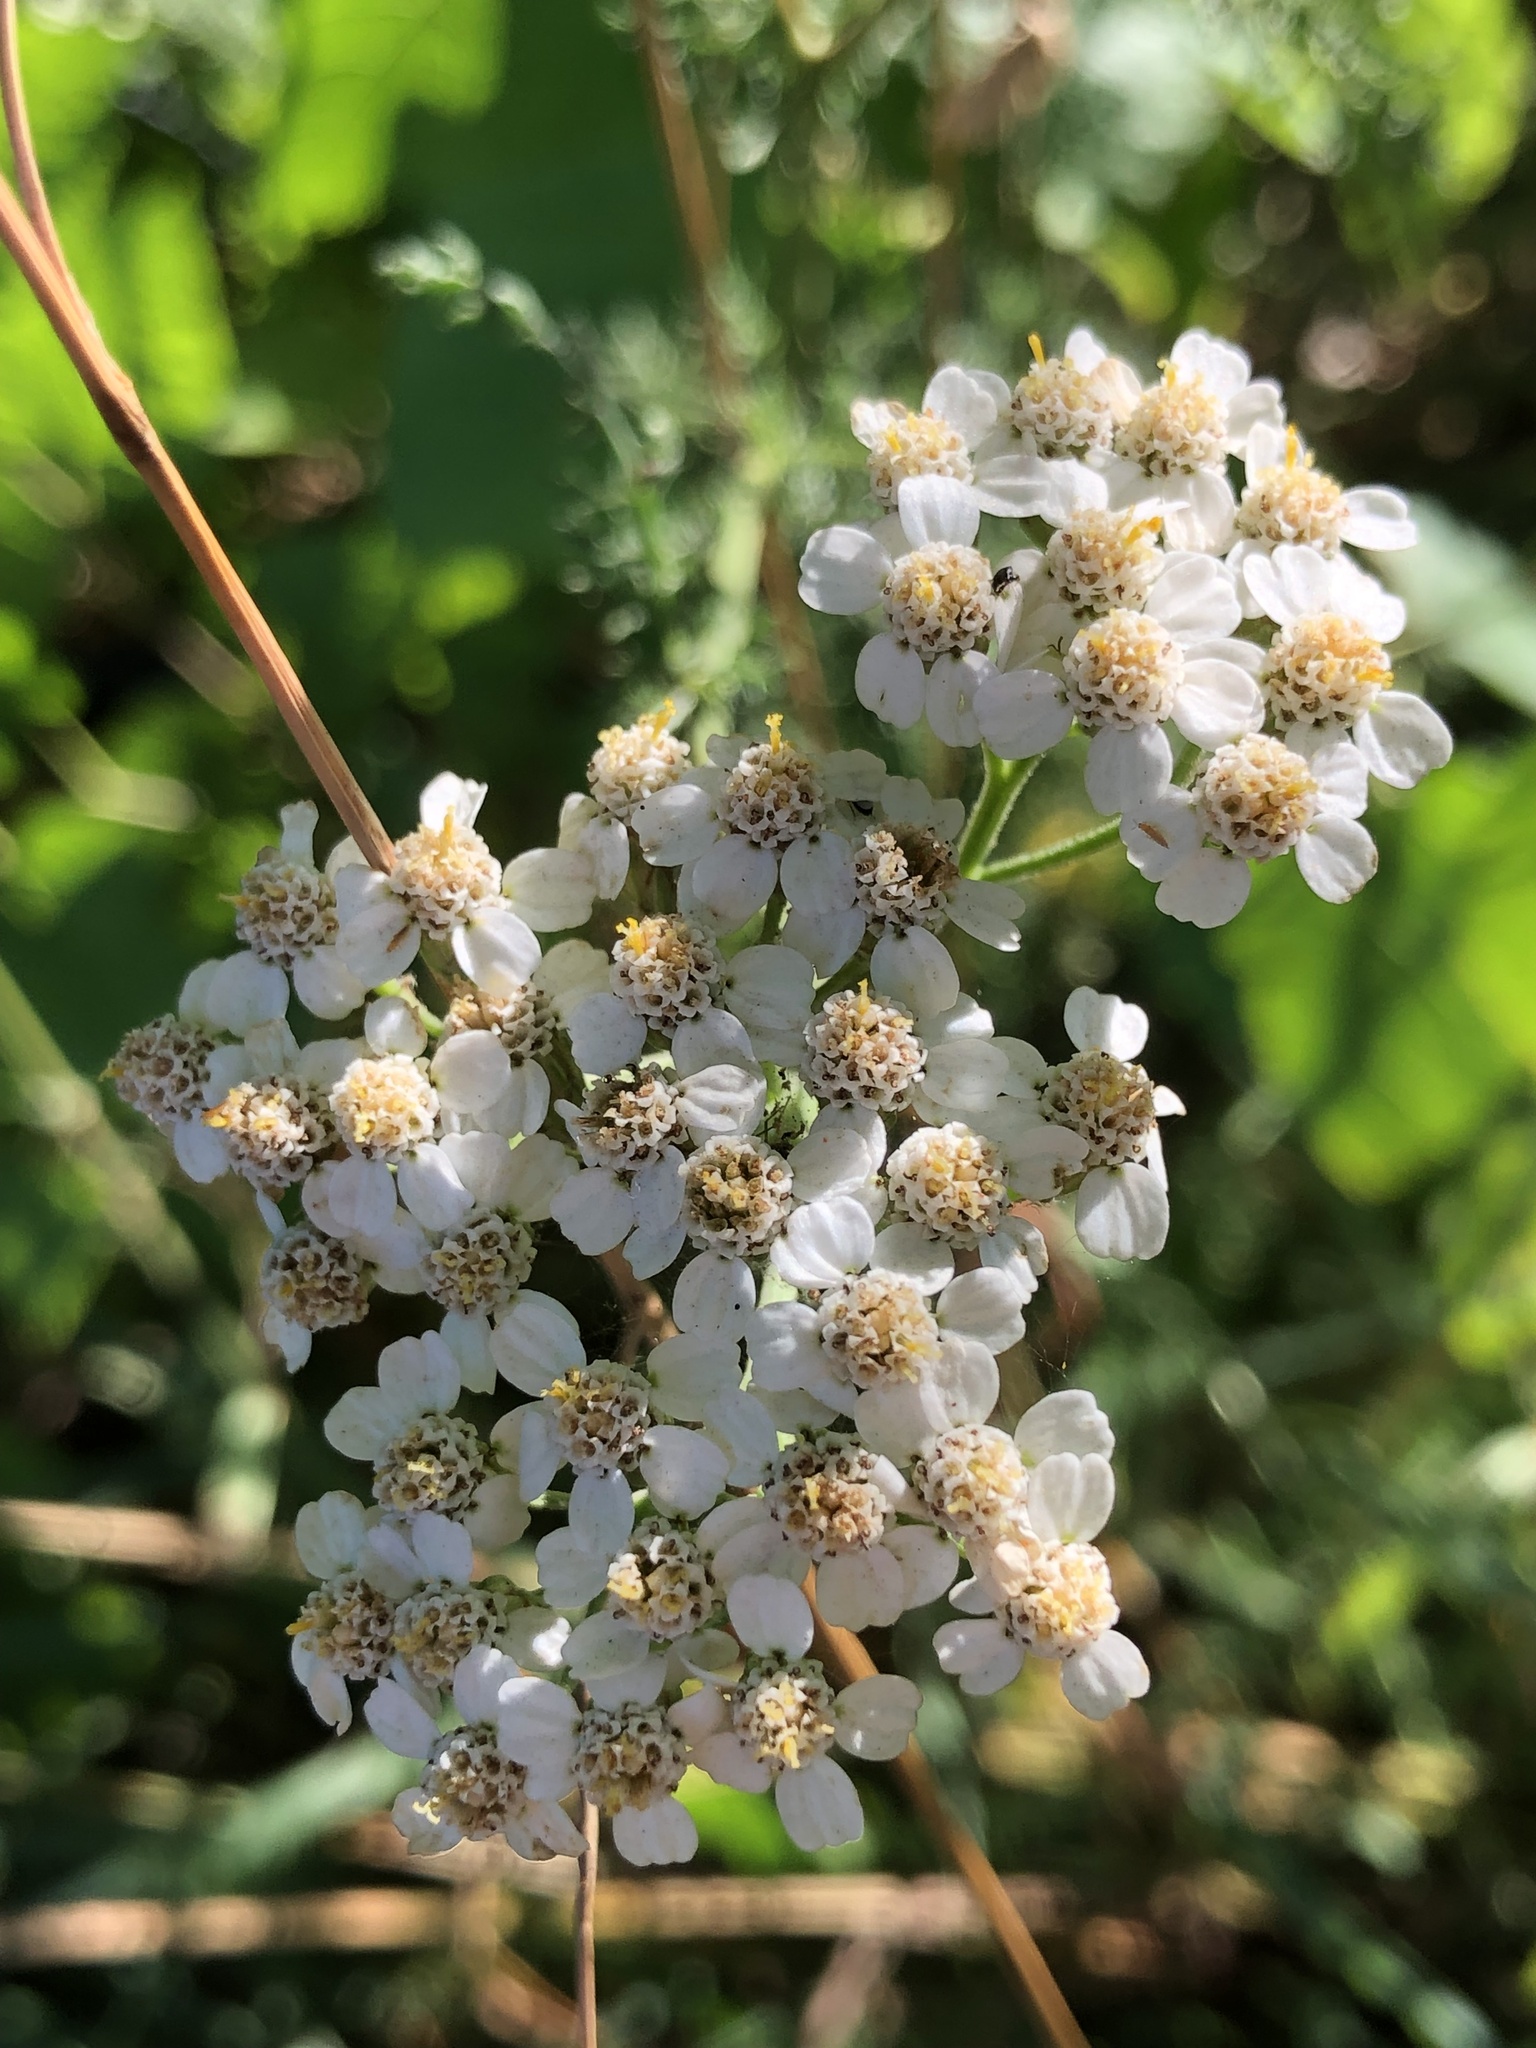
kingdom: Plantae
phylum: Tracheophyta
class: Magnoliopsida
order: Asterales
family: Asteraceae
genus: Achillea
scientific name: Achillea millefolium
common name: Yarrow
